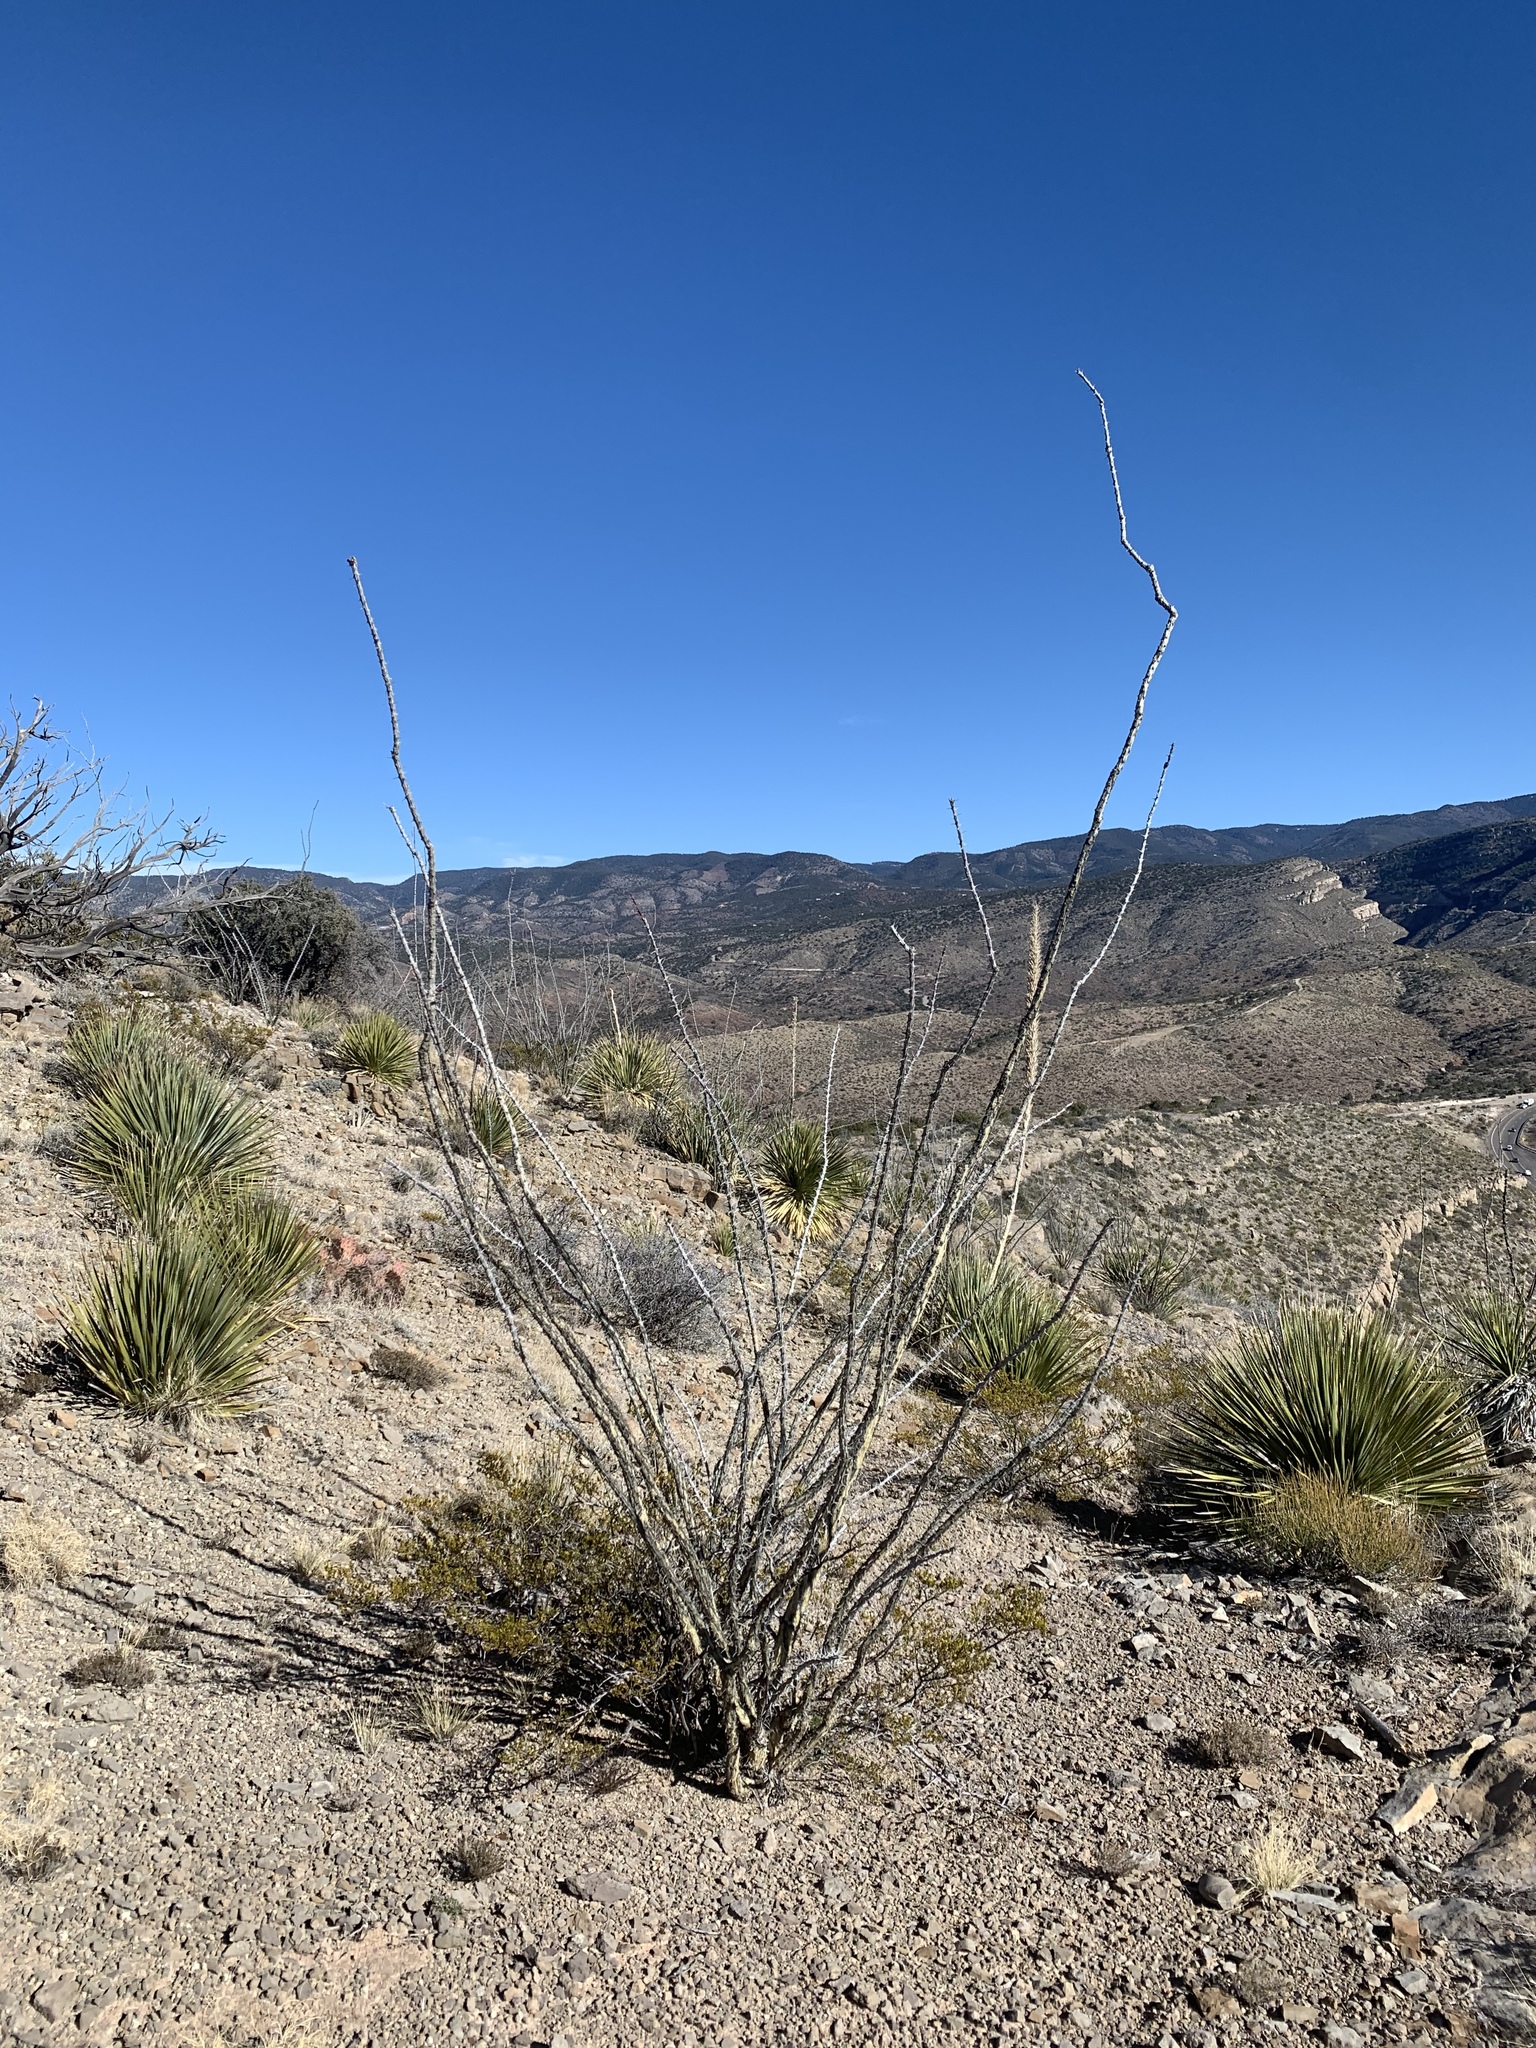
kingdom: Plantae
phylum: Tracheophyta
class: Magnoliopsida
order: Ericales
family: Fouquieriaceae
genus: Fouquieria
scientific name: Fouquieria splendens
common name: Vine-cactus
